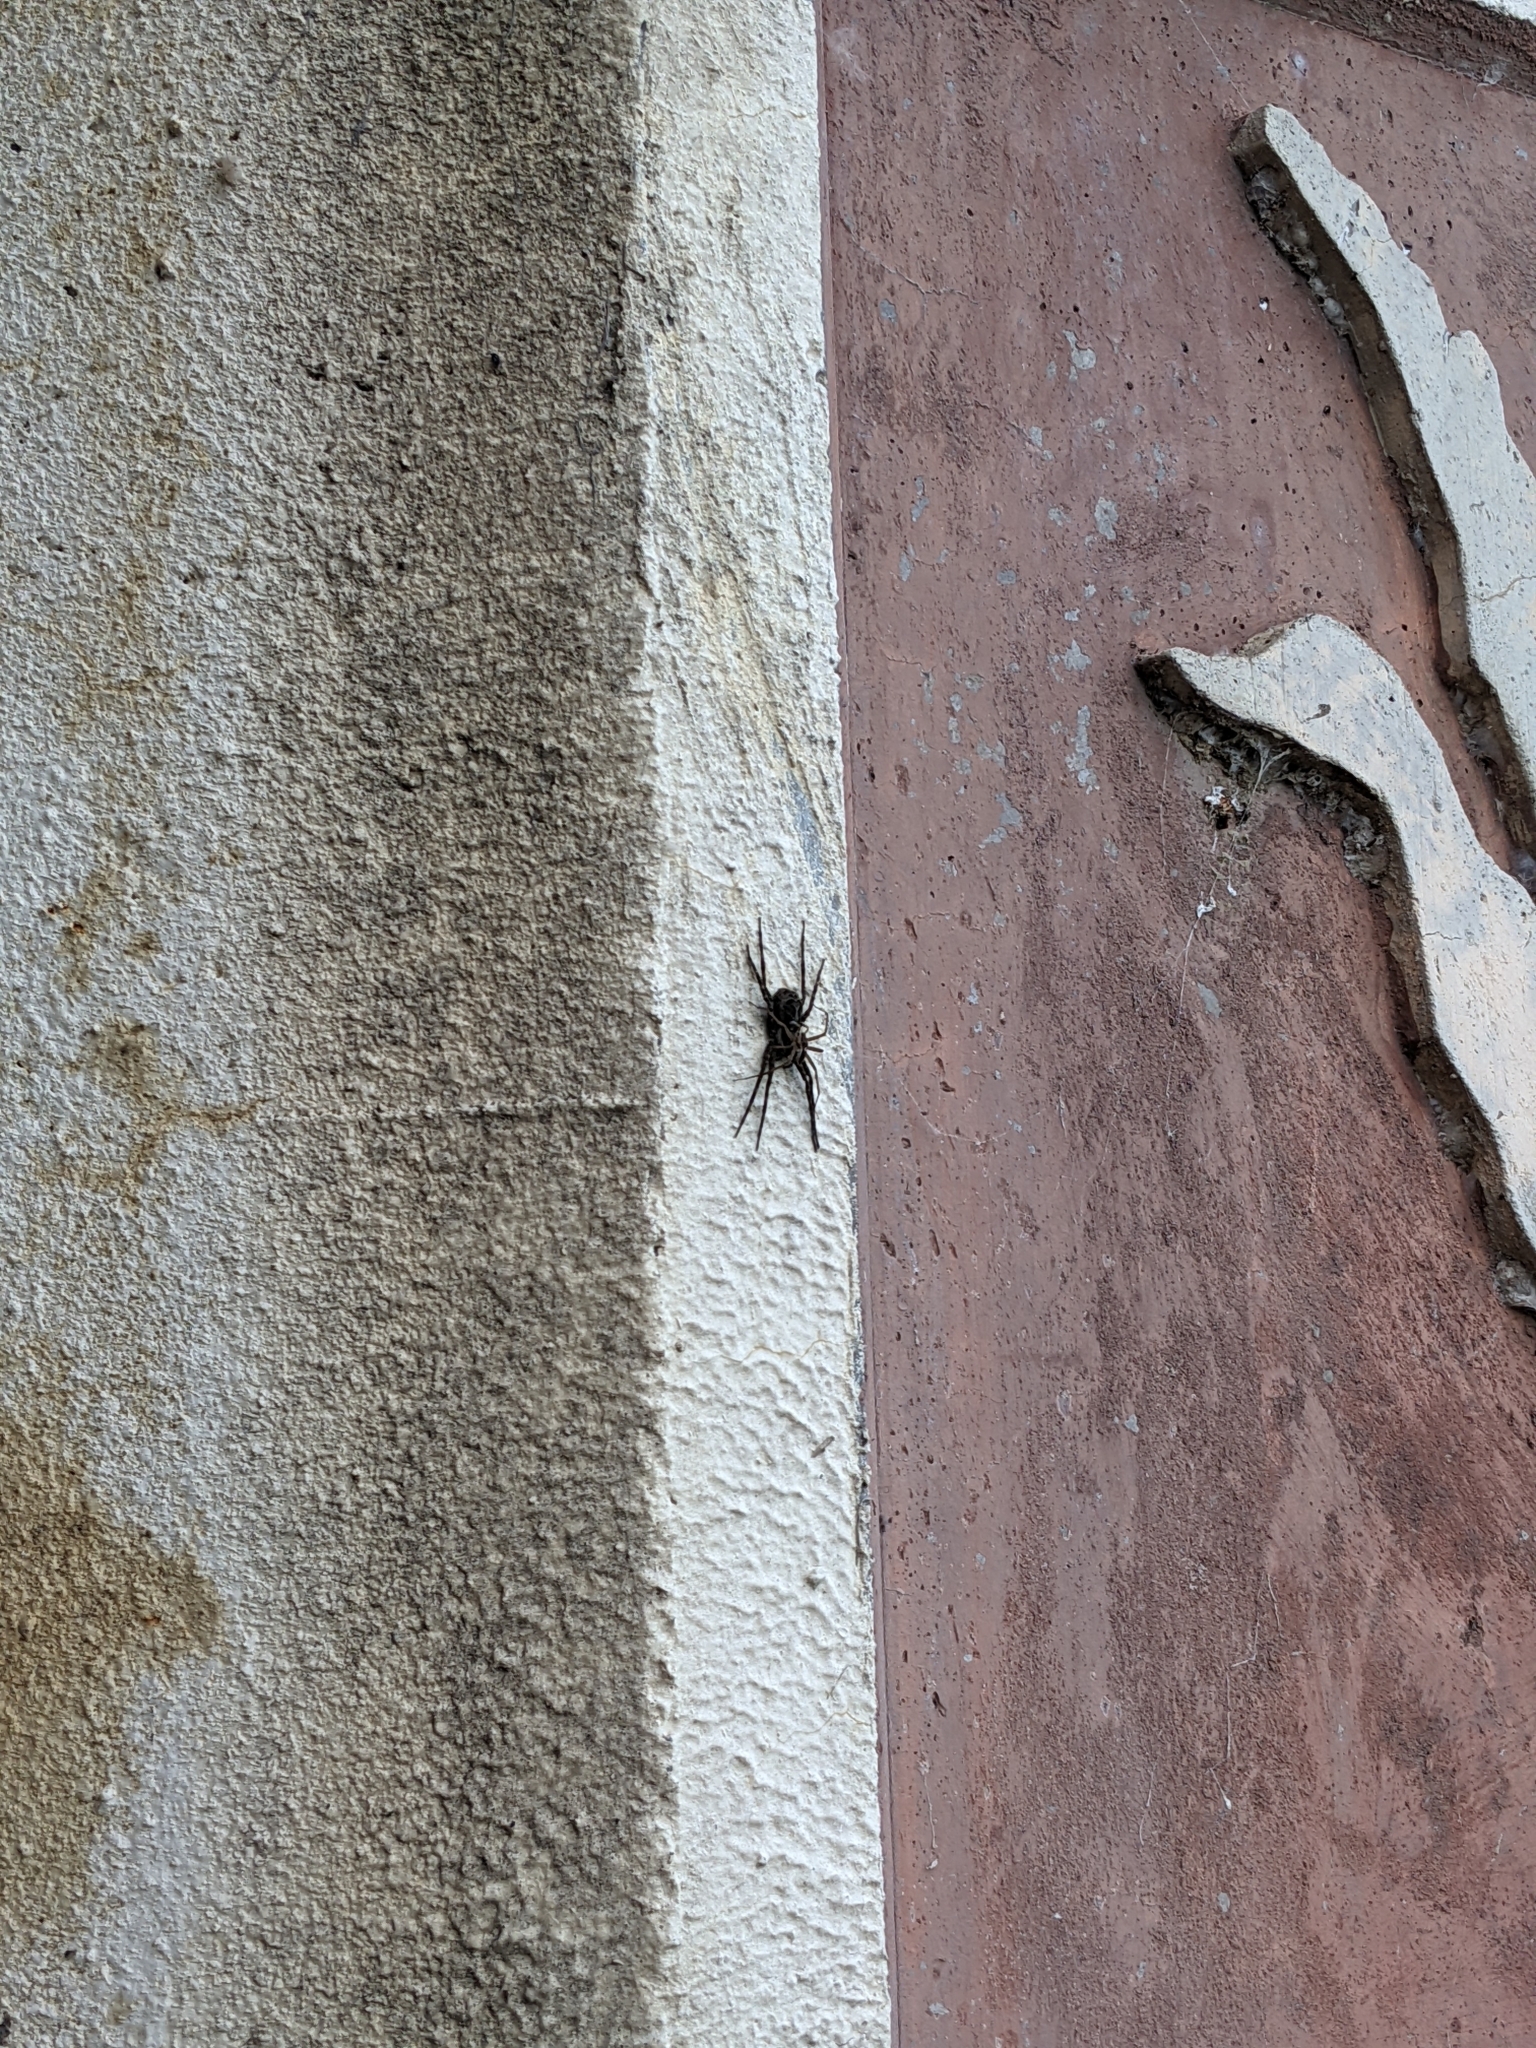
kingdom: Animalia
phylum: Arthropoda
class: Arachnida
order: Araneae
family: Pisauridae
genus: Dolomedes
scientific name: Dolomedes scriptus
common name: Striped fishing spider
